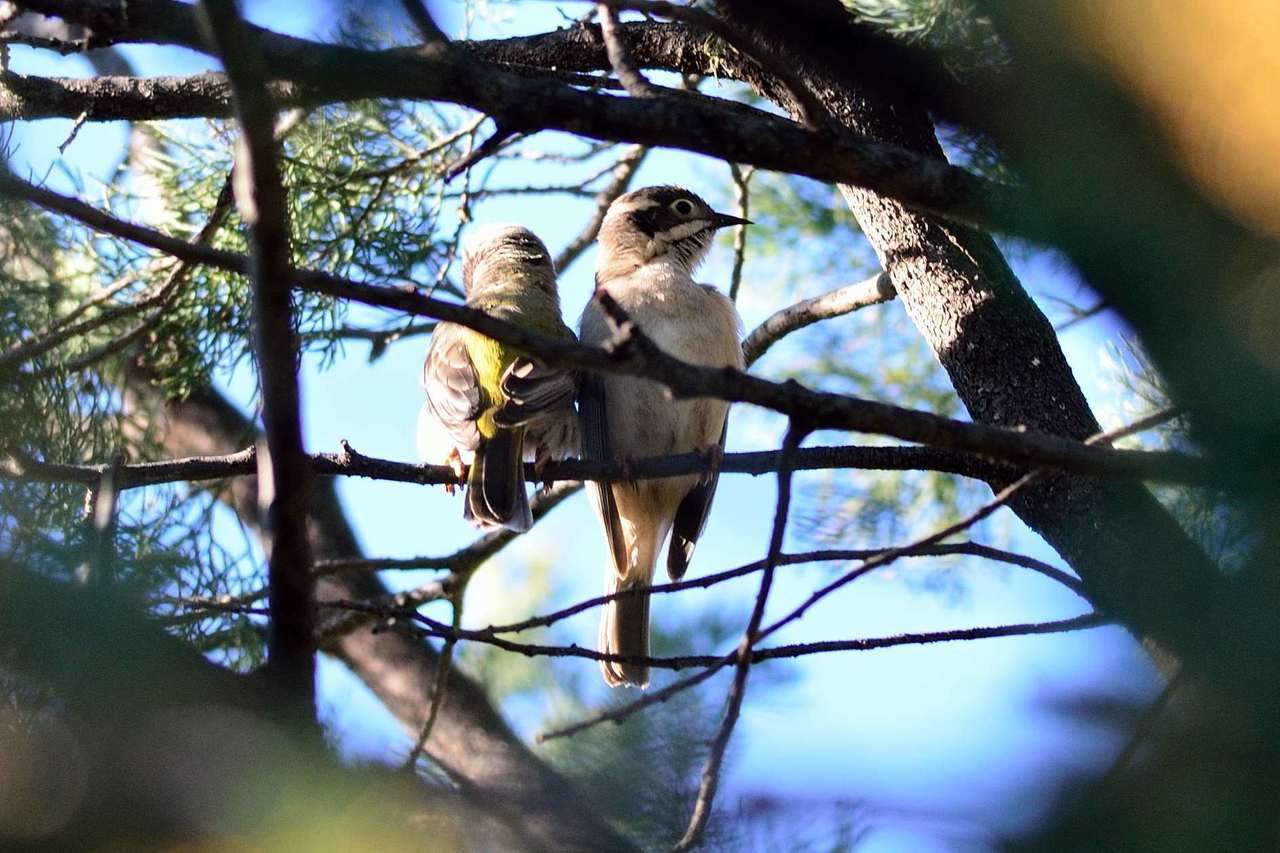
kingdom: Animalia
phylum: Chordata
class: Aves
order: Passeriformes
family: Meliphagidae
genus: Melithreptus
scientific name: Melithreptus brevirostris
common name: Brown-headed honeyeater
